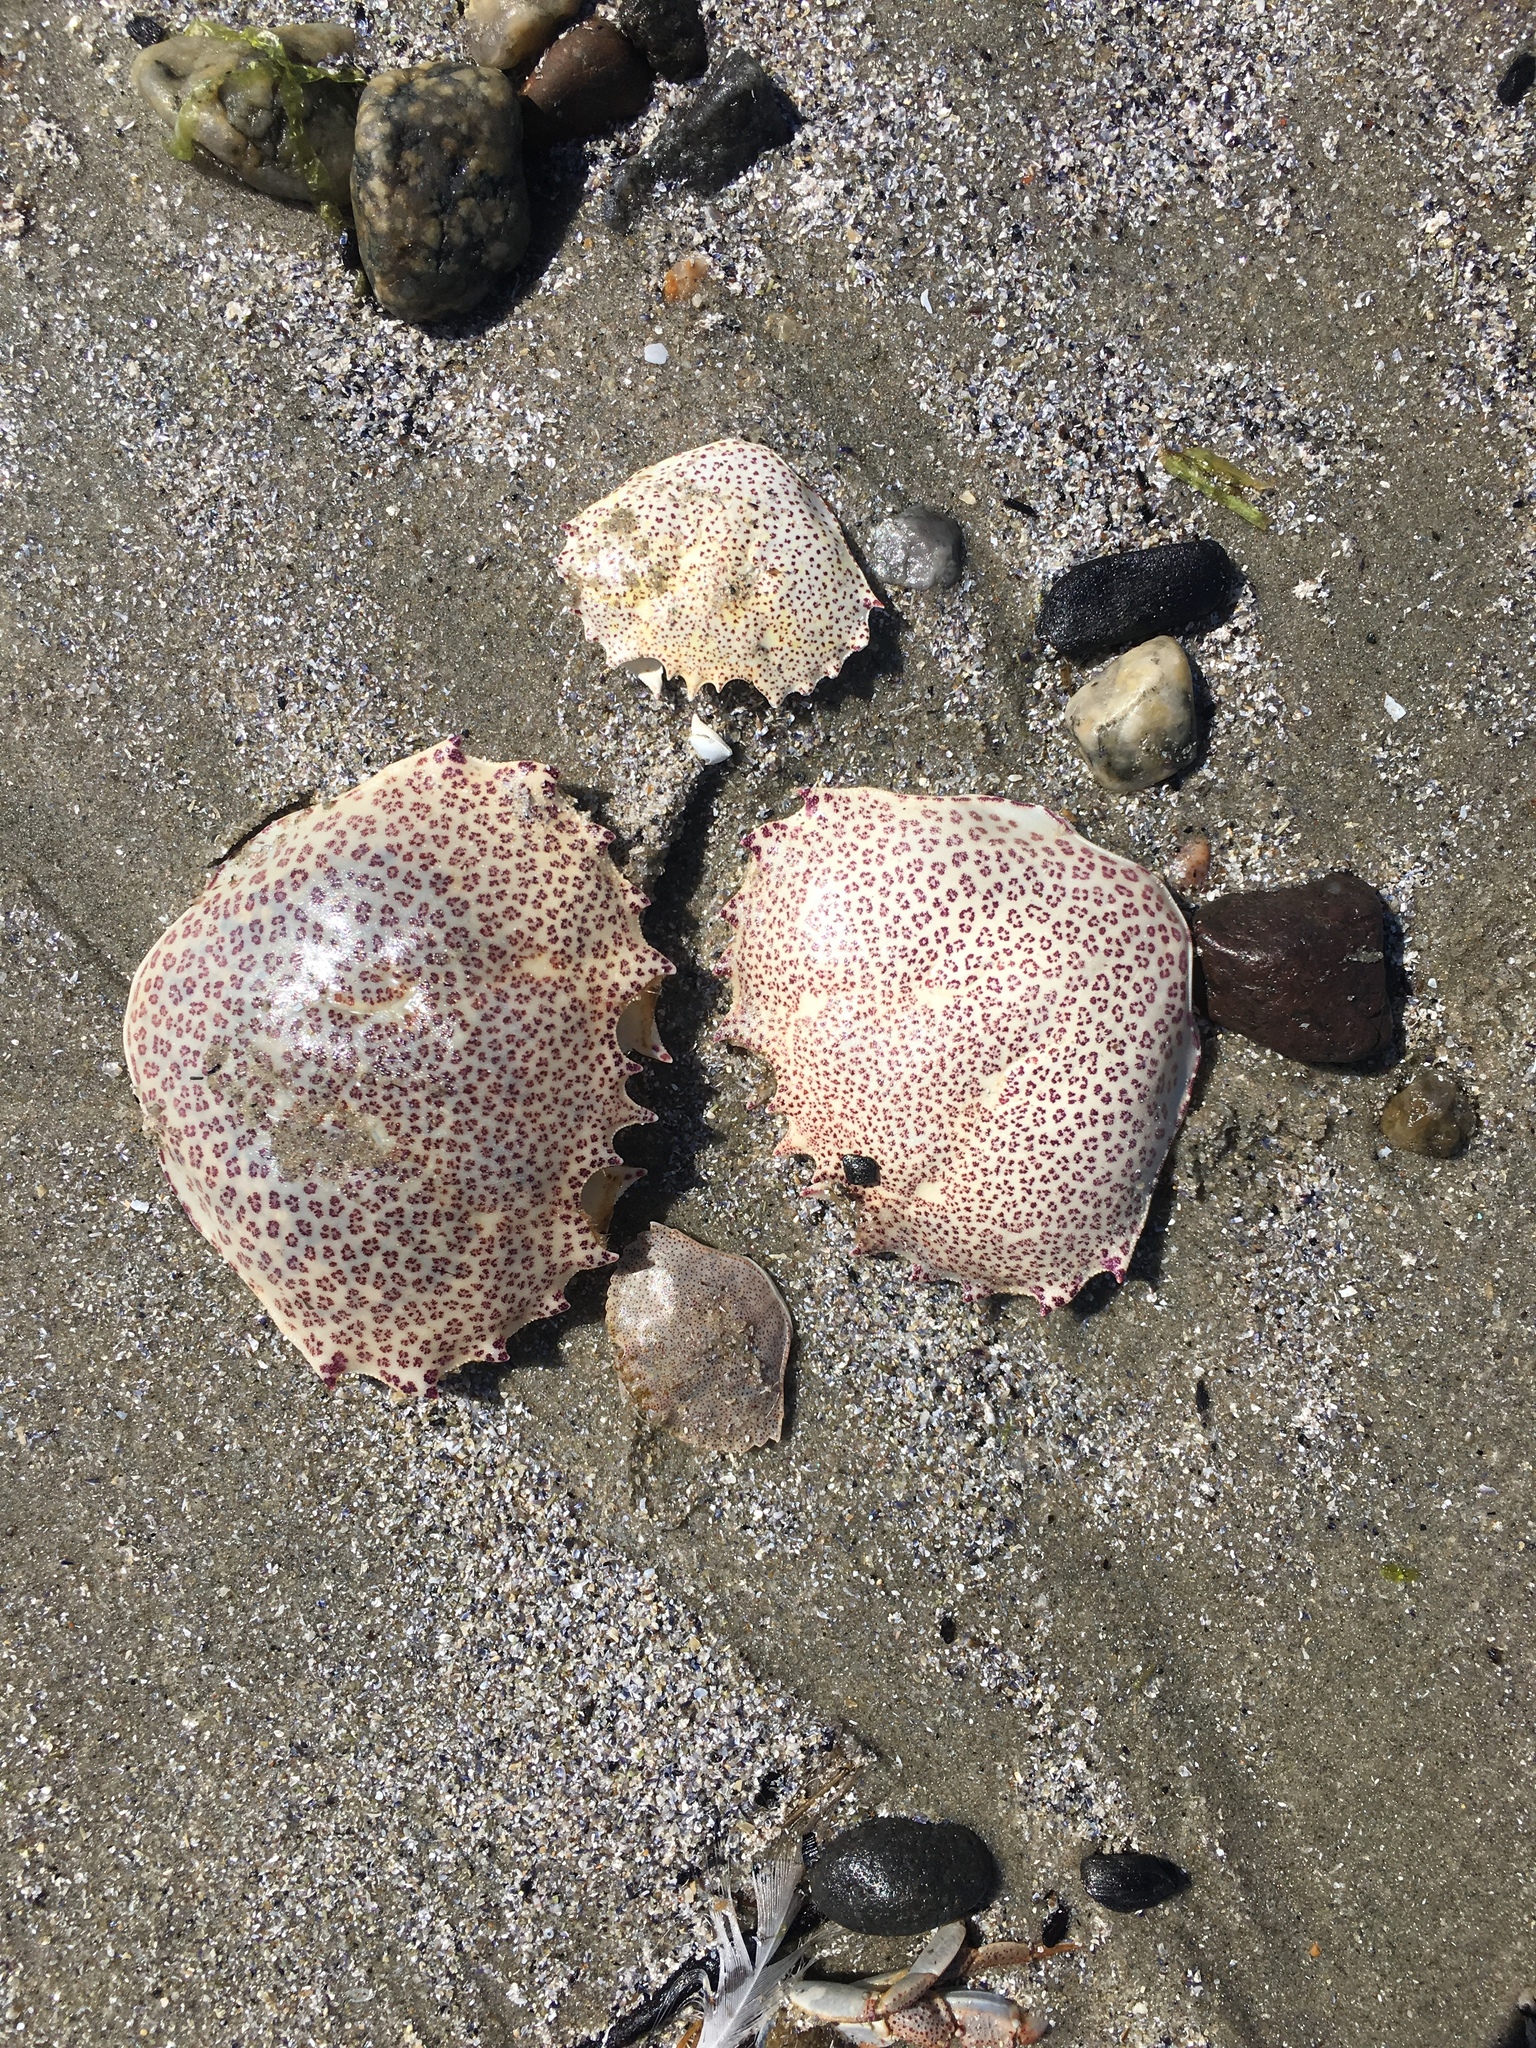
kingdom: Animalia
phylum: Arthropoda
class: Malacostraca
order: Decapoda
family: Ovalipidae
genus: Ovalipes
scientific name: Ovalipes ocellatus
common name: Lady crab
